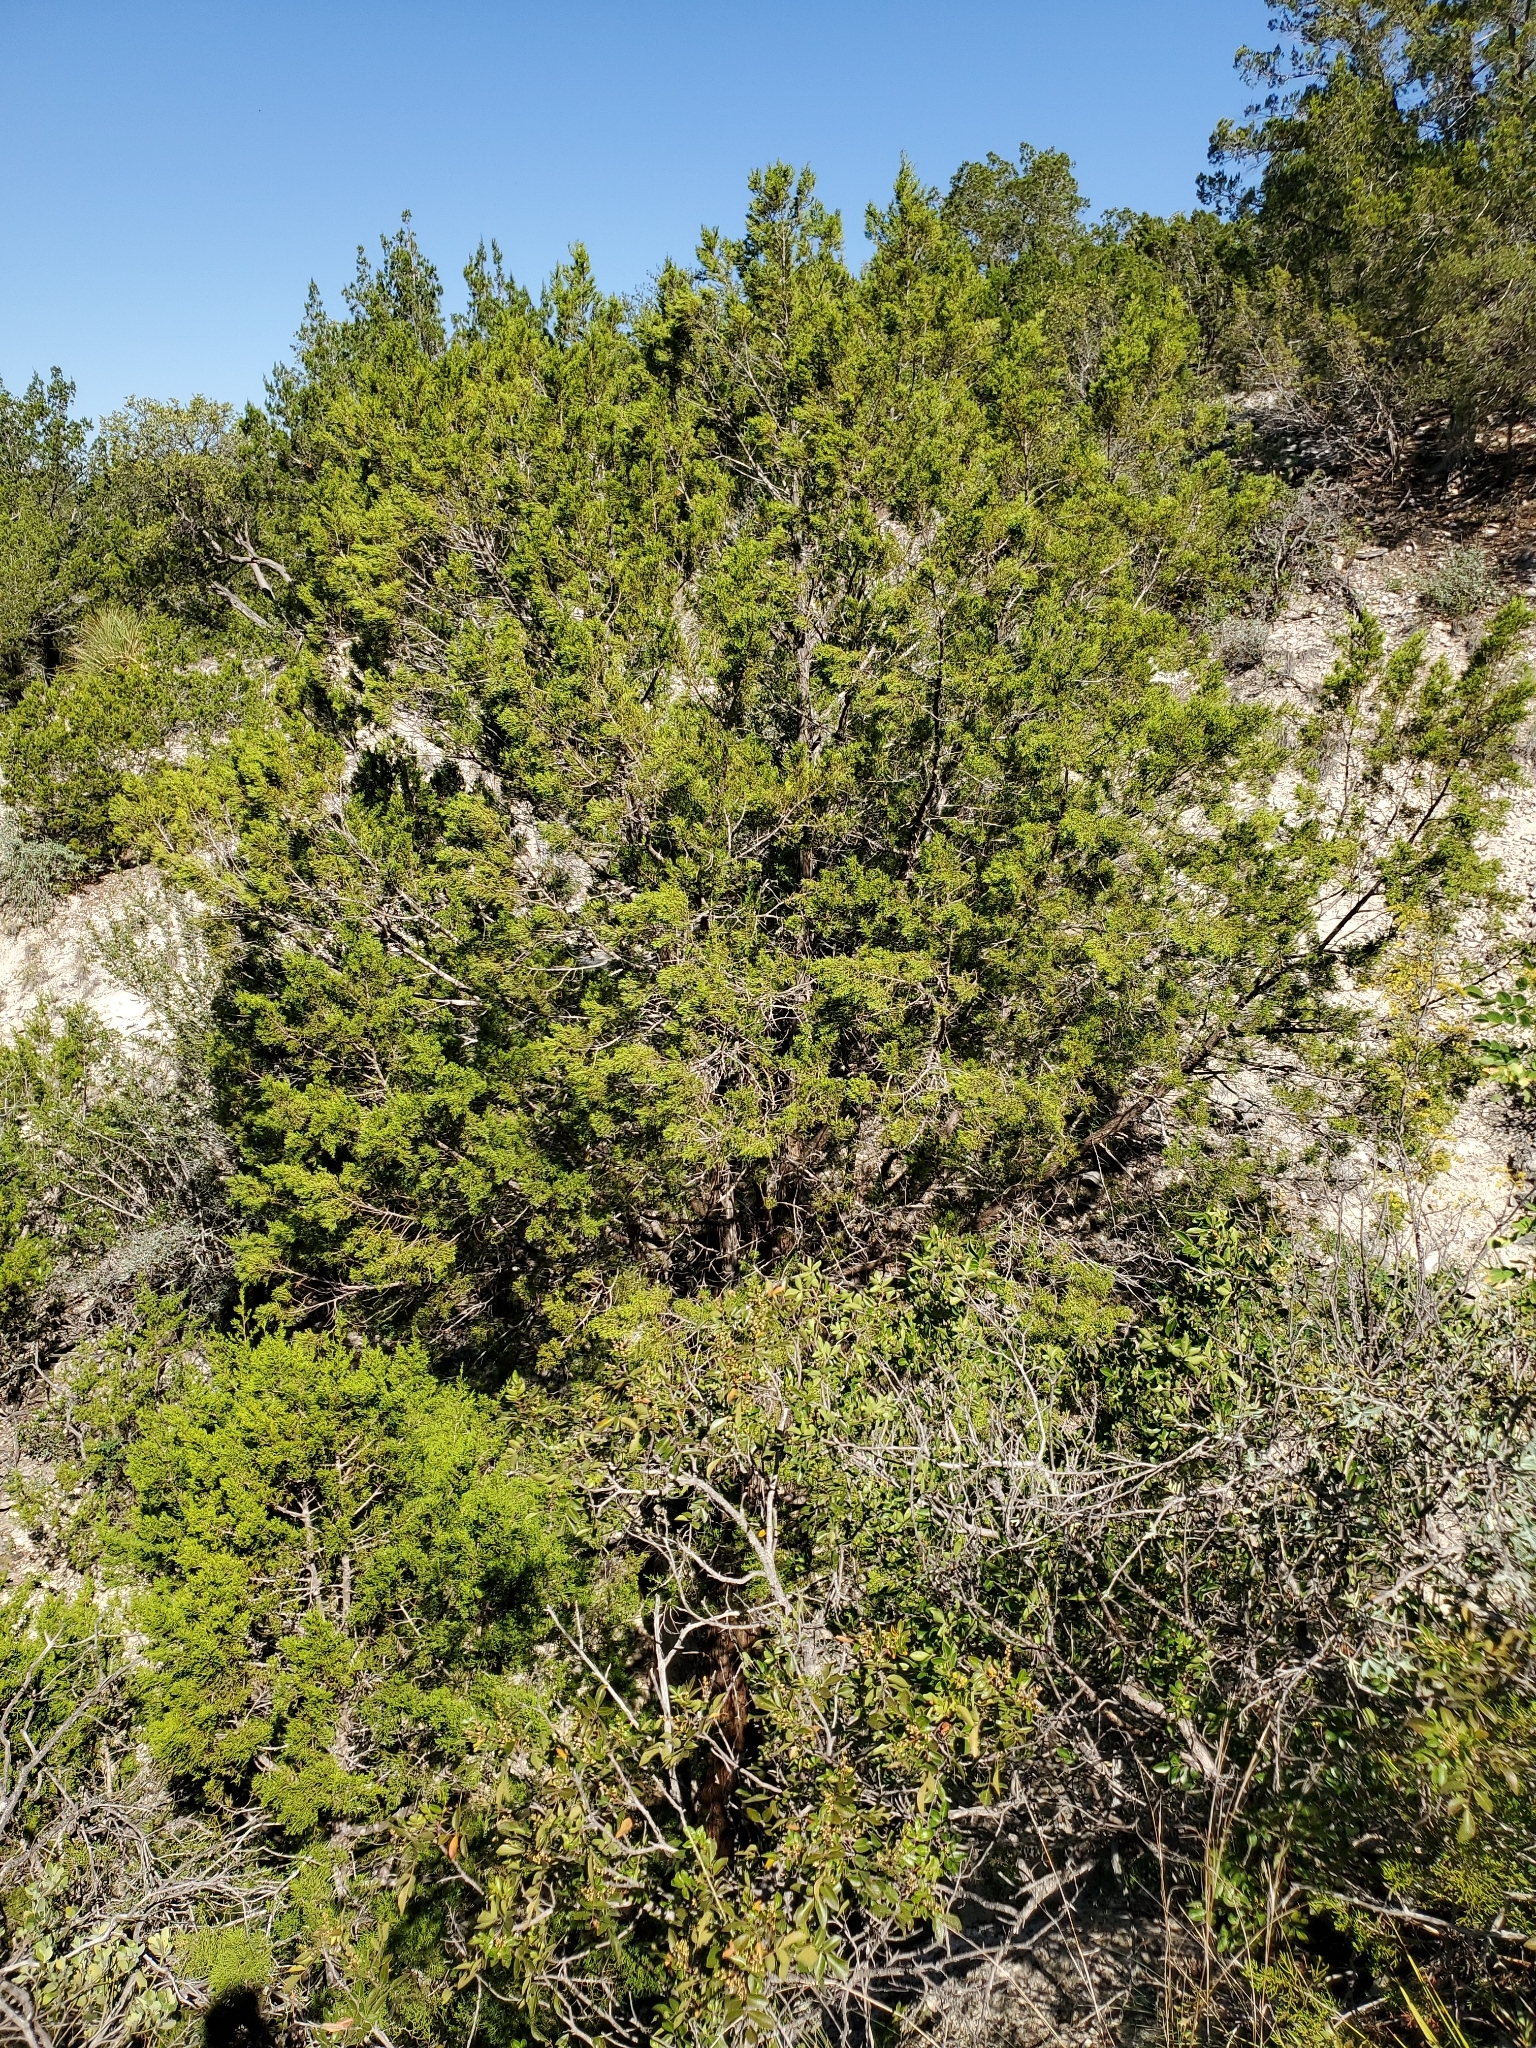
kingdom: Plantae
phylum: Tracheophyta
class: Pinopsida
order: Pinales
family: Cupressaceae
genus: Juniperus
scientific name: Juniperus ashei
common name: Mexican juniper
